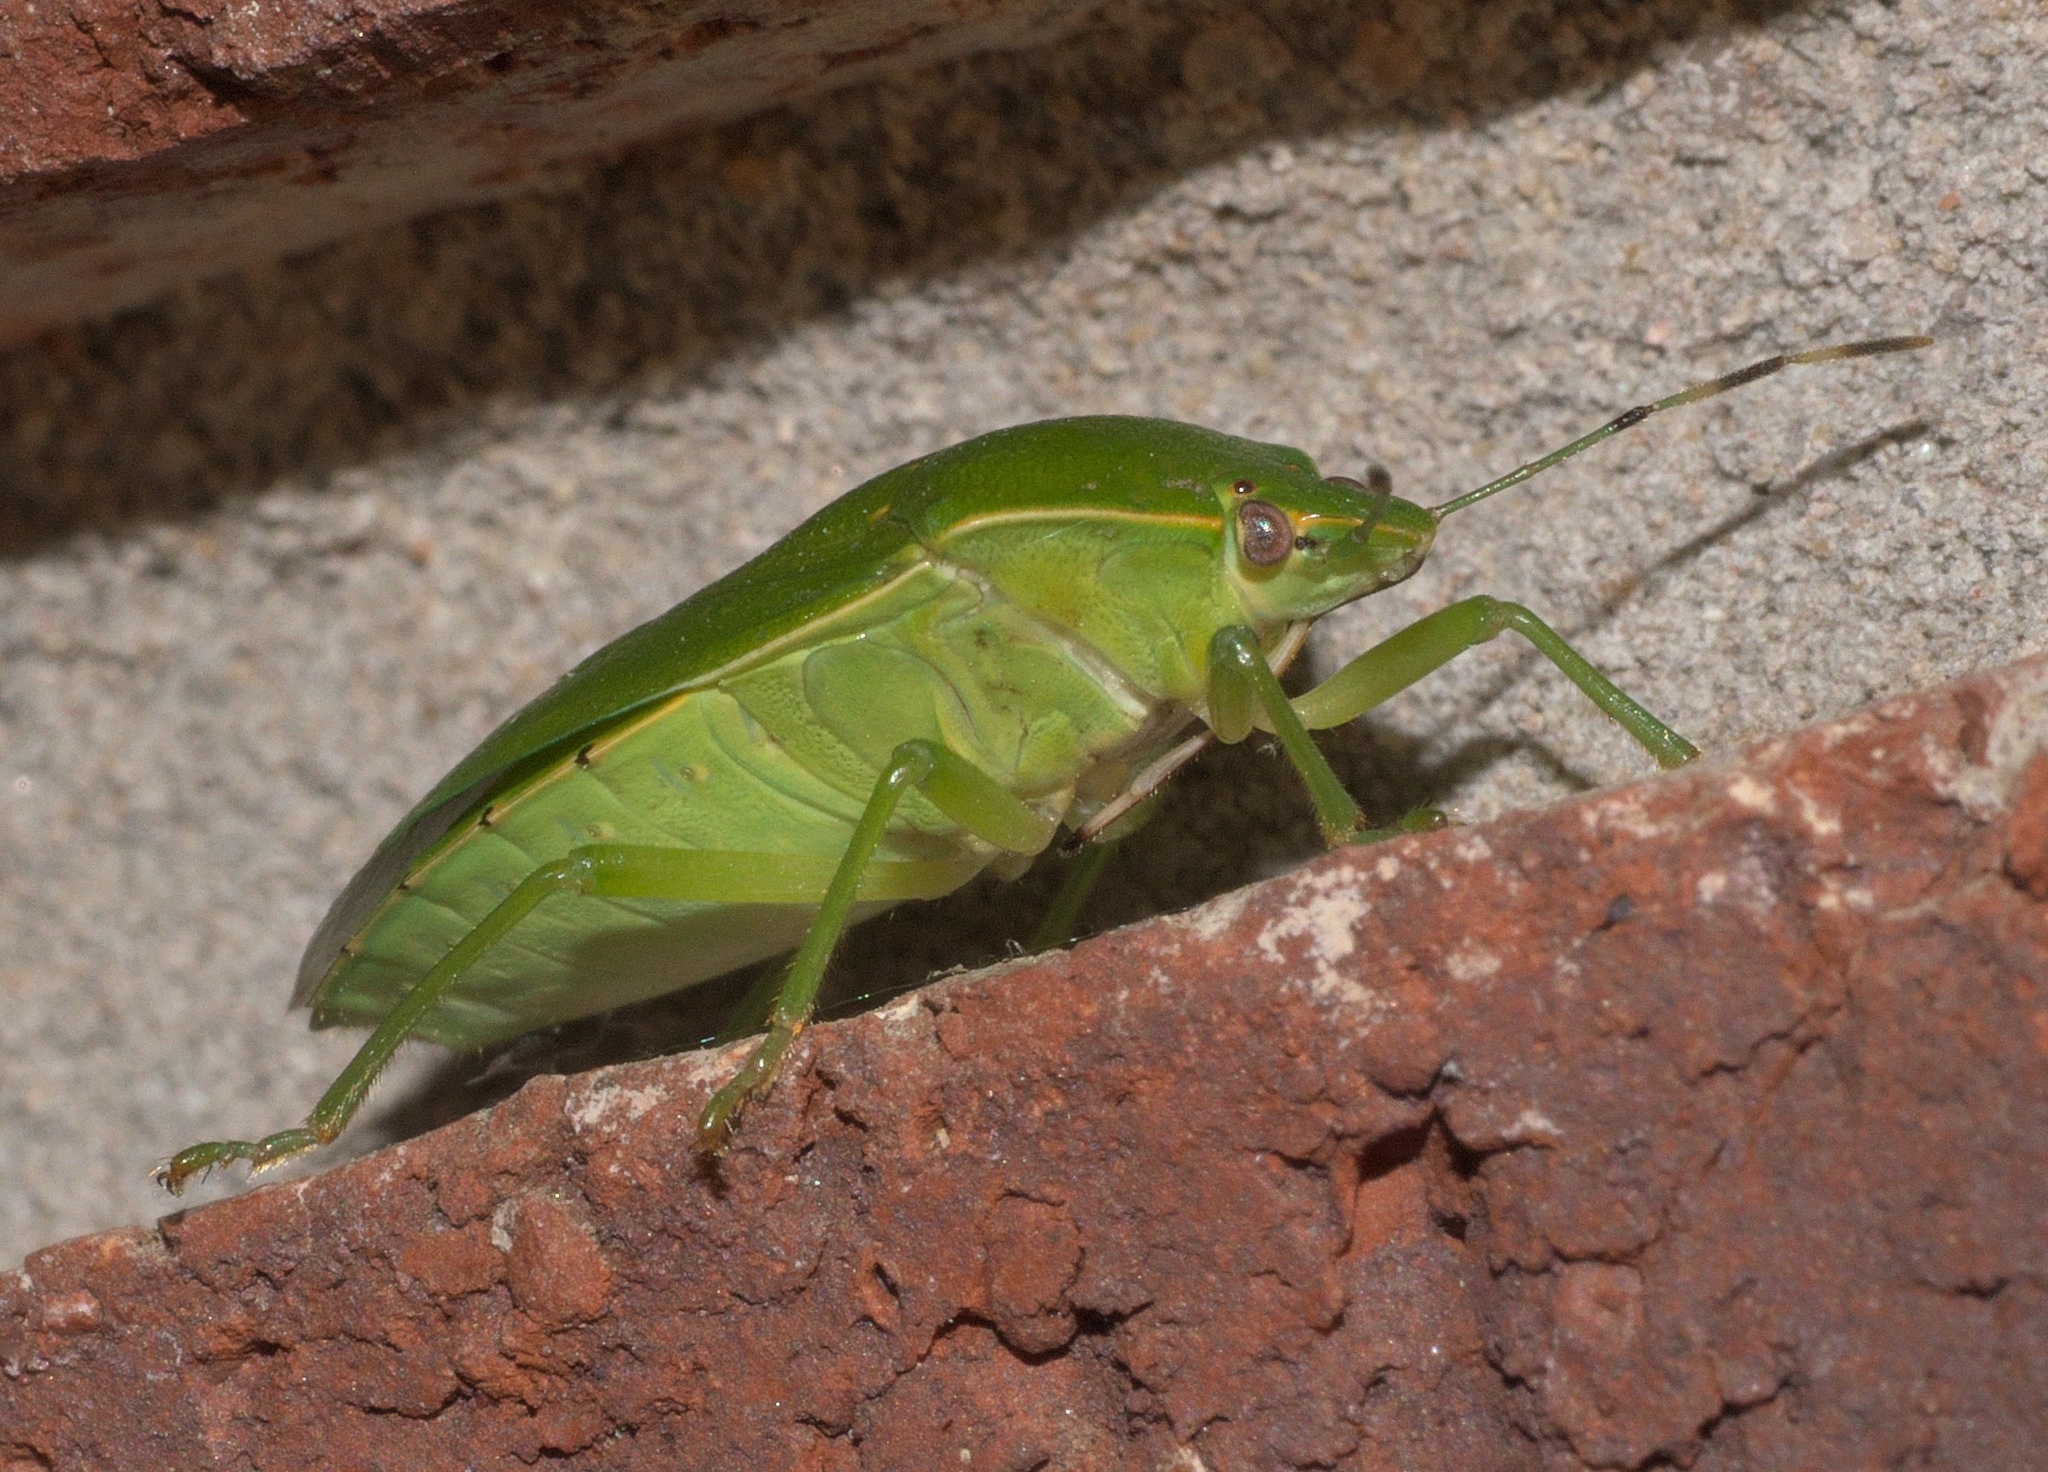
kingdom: Animalia
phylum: Arthropoda
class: Insecta
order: Hemiptera
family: Pentatomidae
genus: Chinavia
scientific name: Chinavia hilaris
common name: Green stink bug
